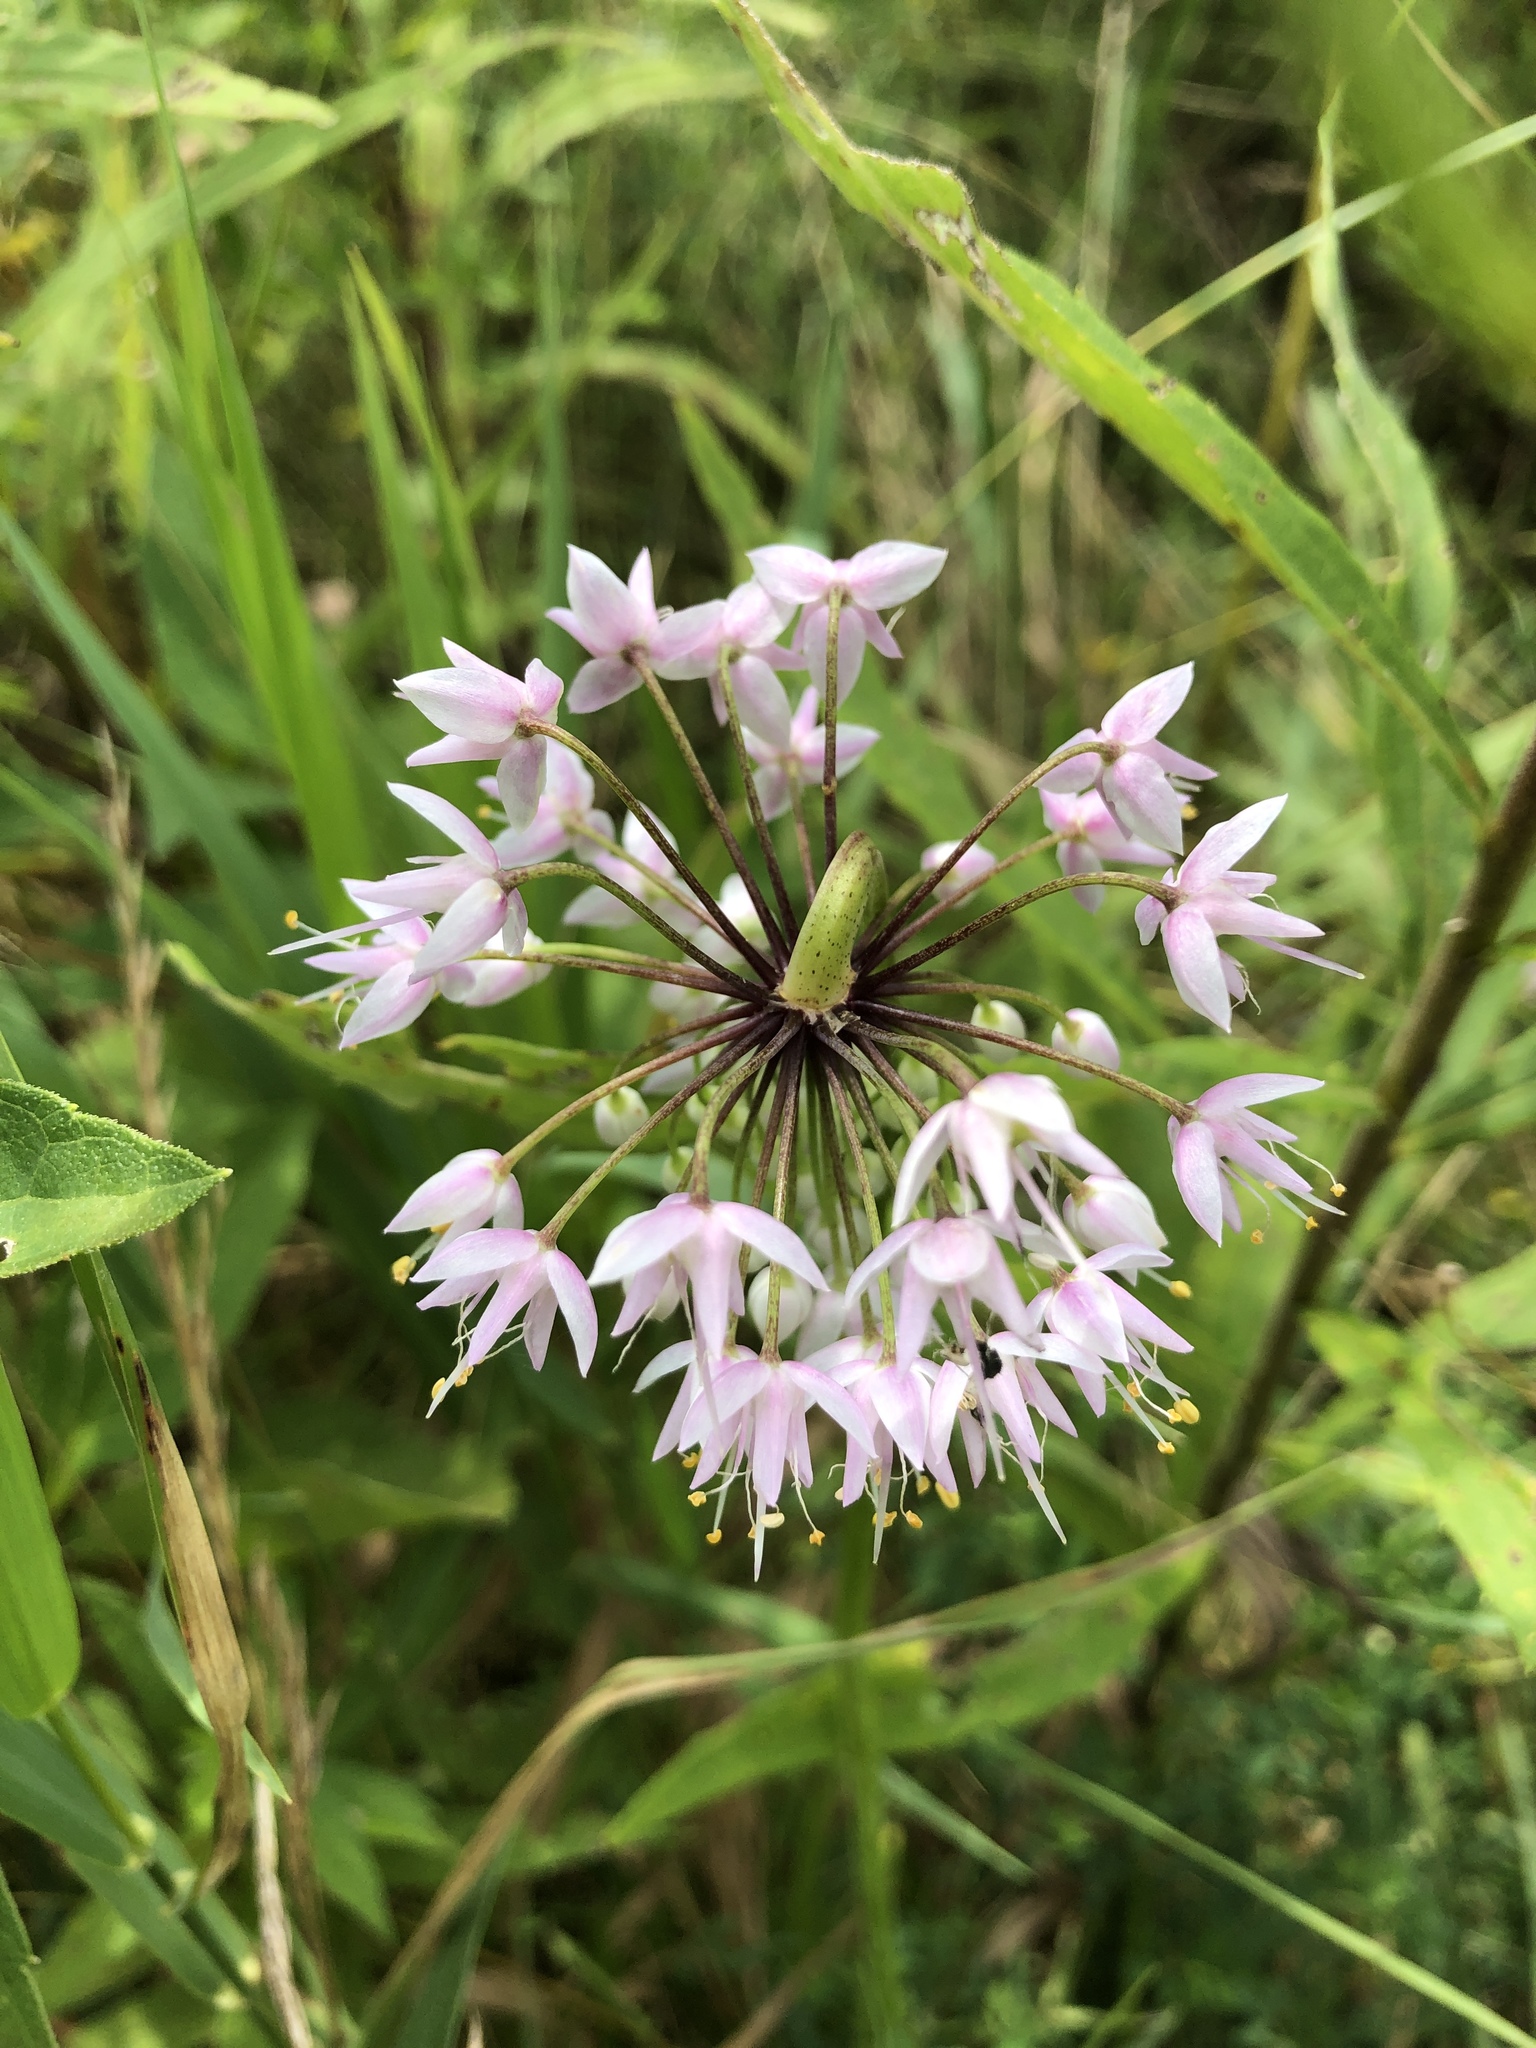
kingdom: Plantae
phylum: Tracheophyta
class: Liliopsida
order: Asparagales
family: Amaryllidaceae
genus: Allium
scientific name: Allium cernuum
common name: Nodding onion
